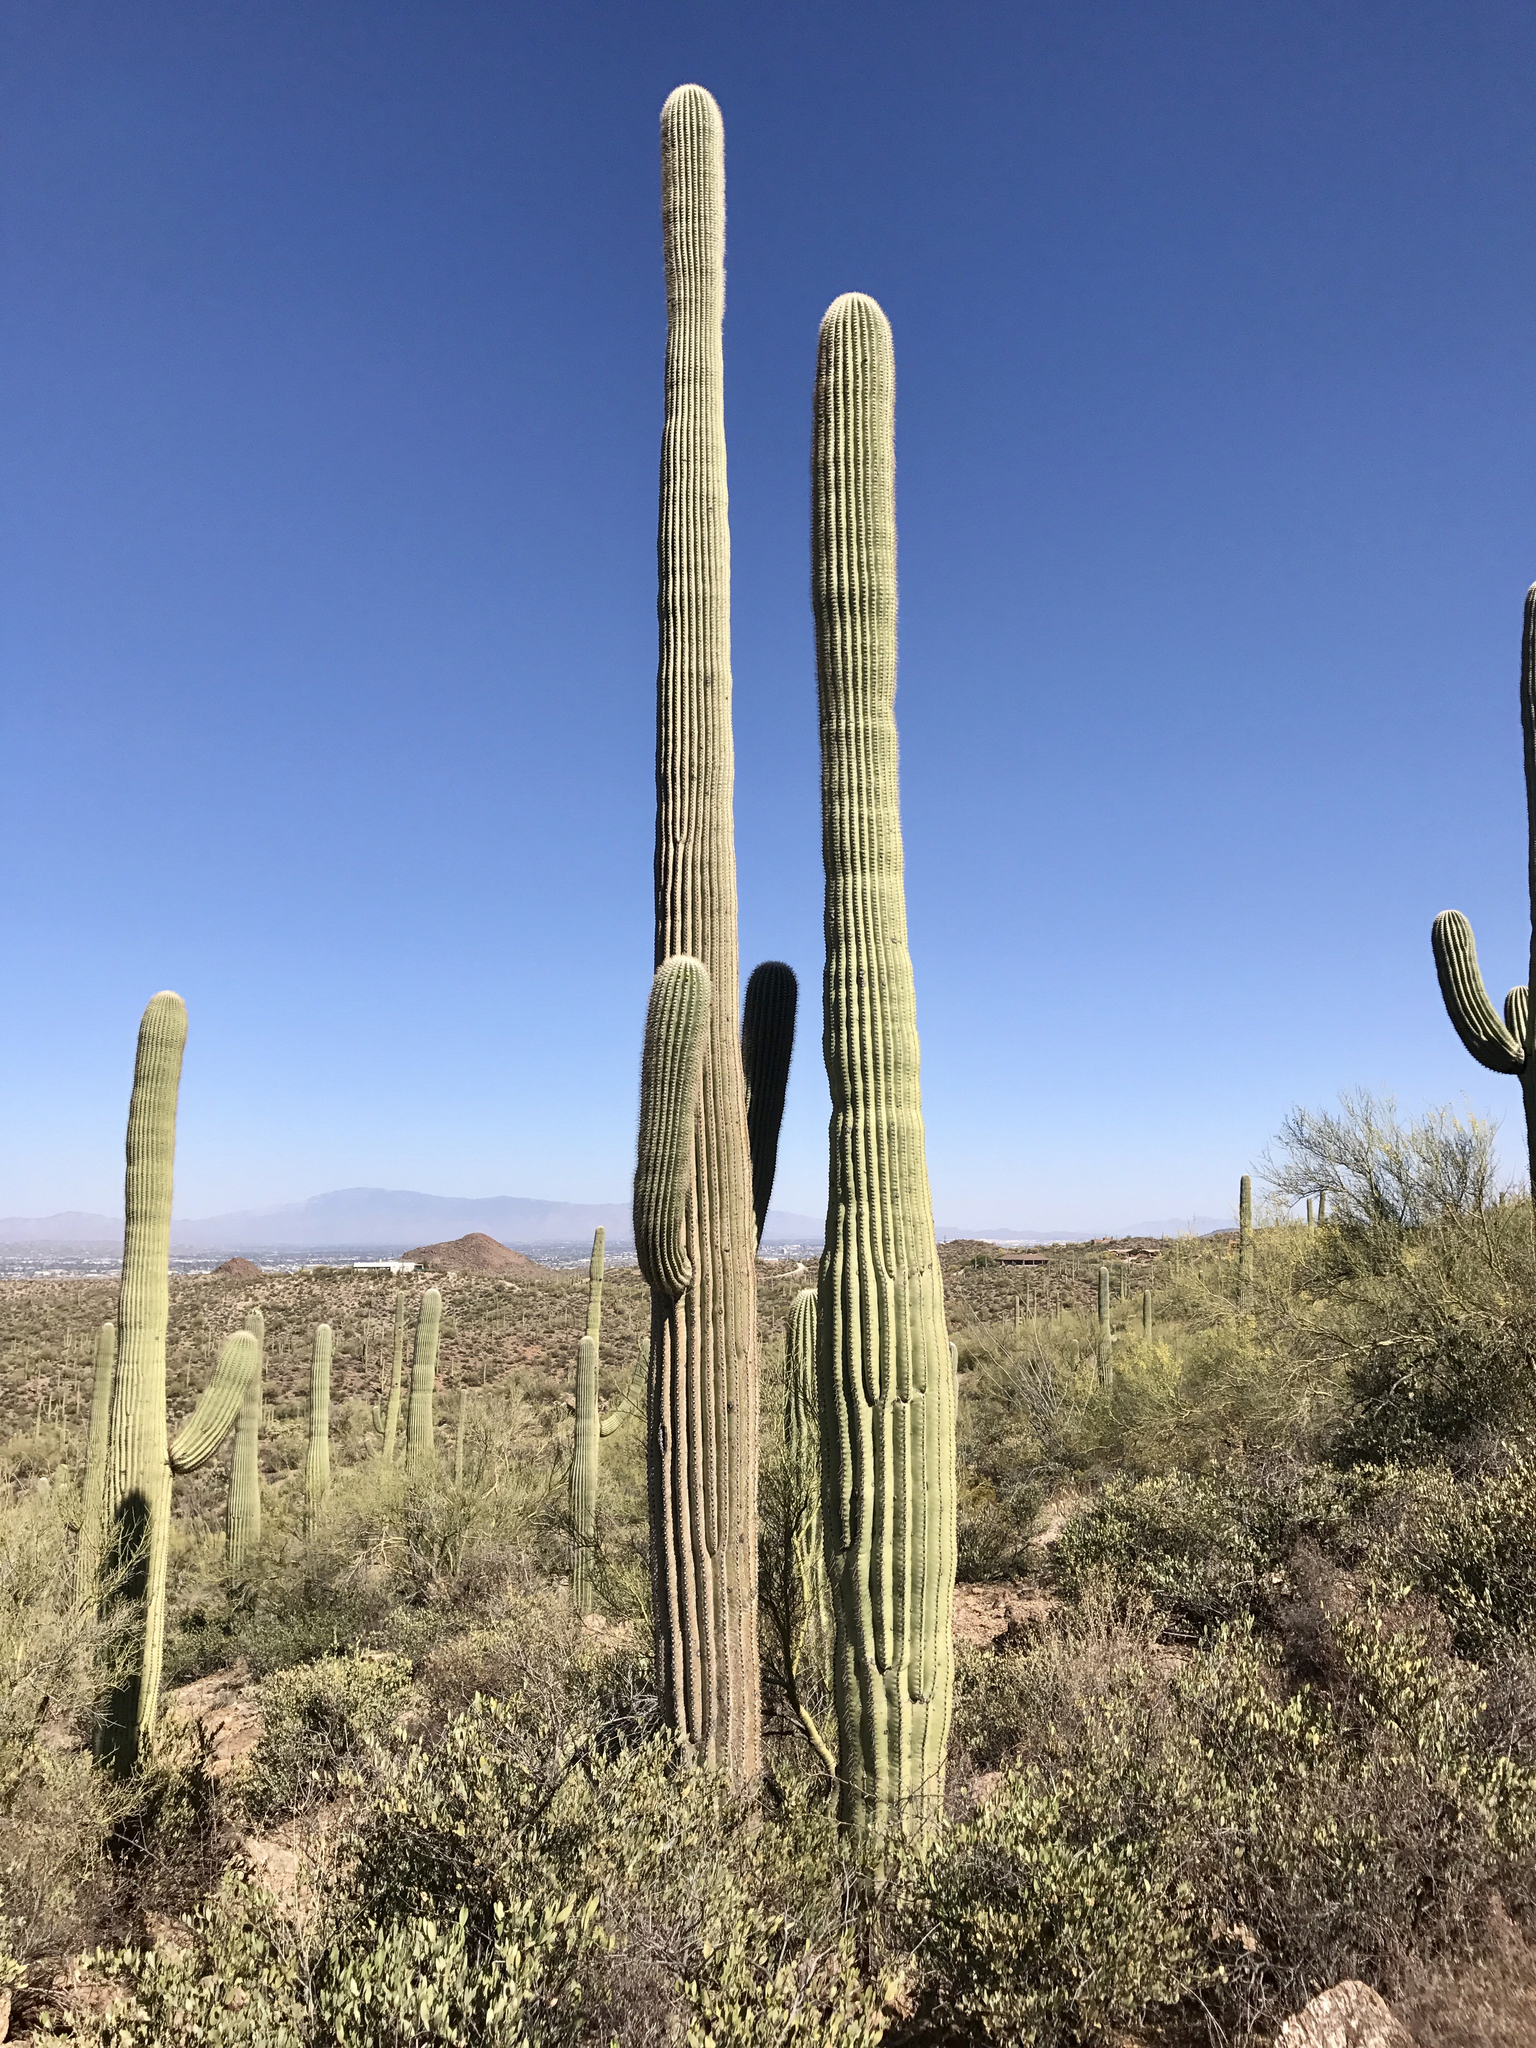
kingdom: Plantae
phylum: Tracheophyta
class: Magnoliopsida
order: Caryophyllales
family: Cactaceae
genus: Carnegiea
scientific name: Carnegiea gigantea
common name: Saguaro
